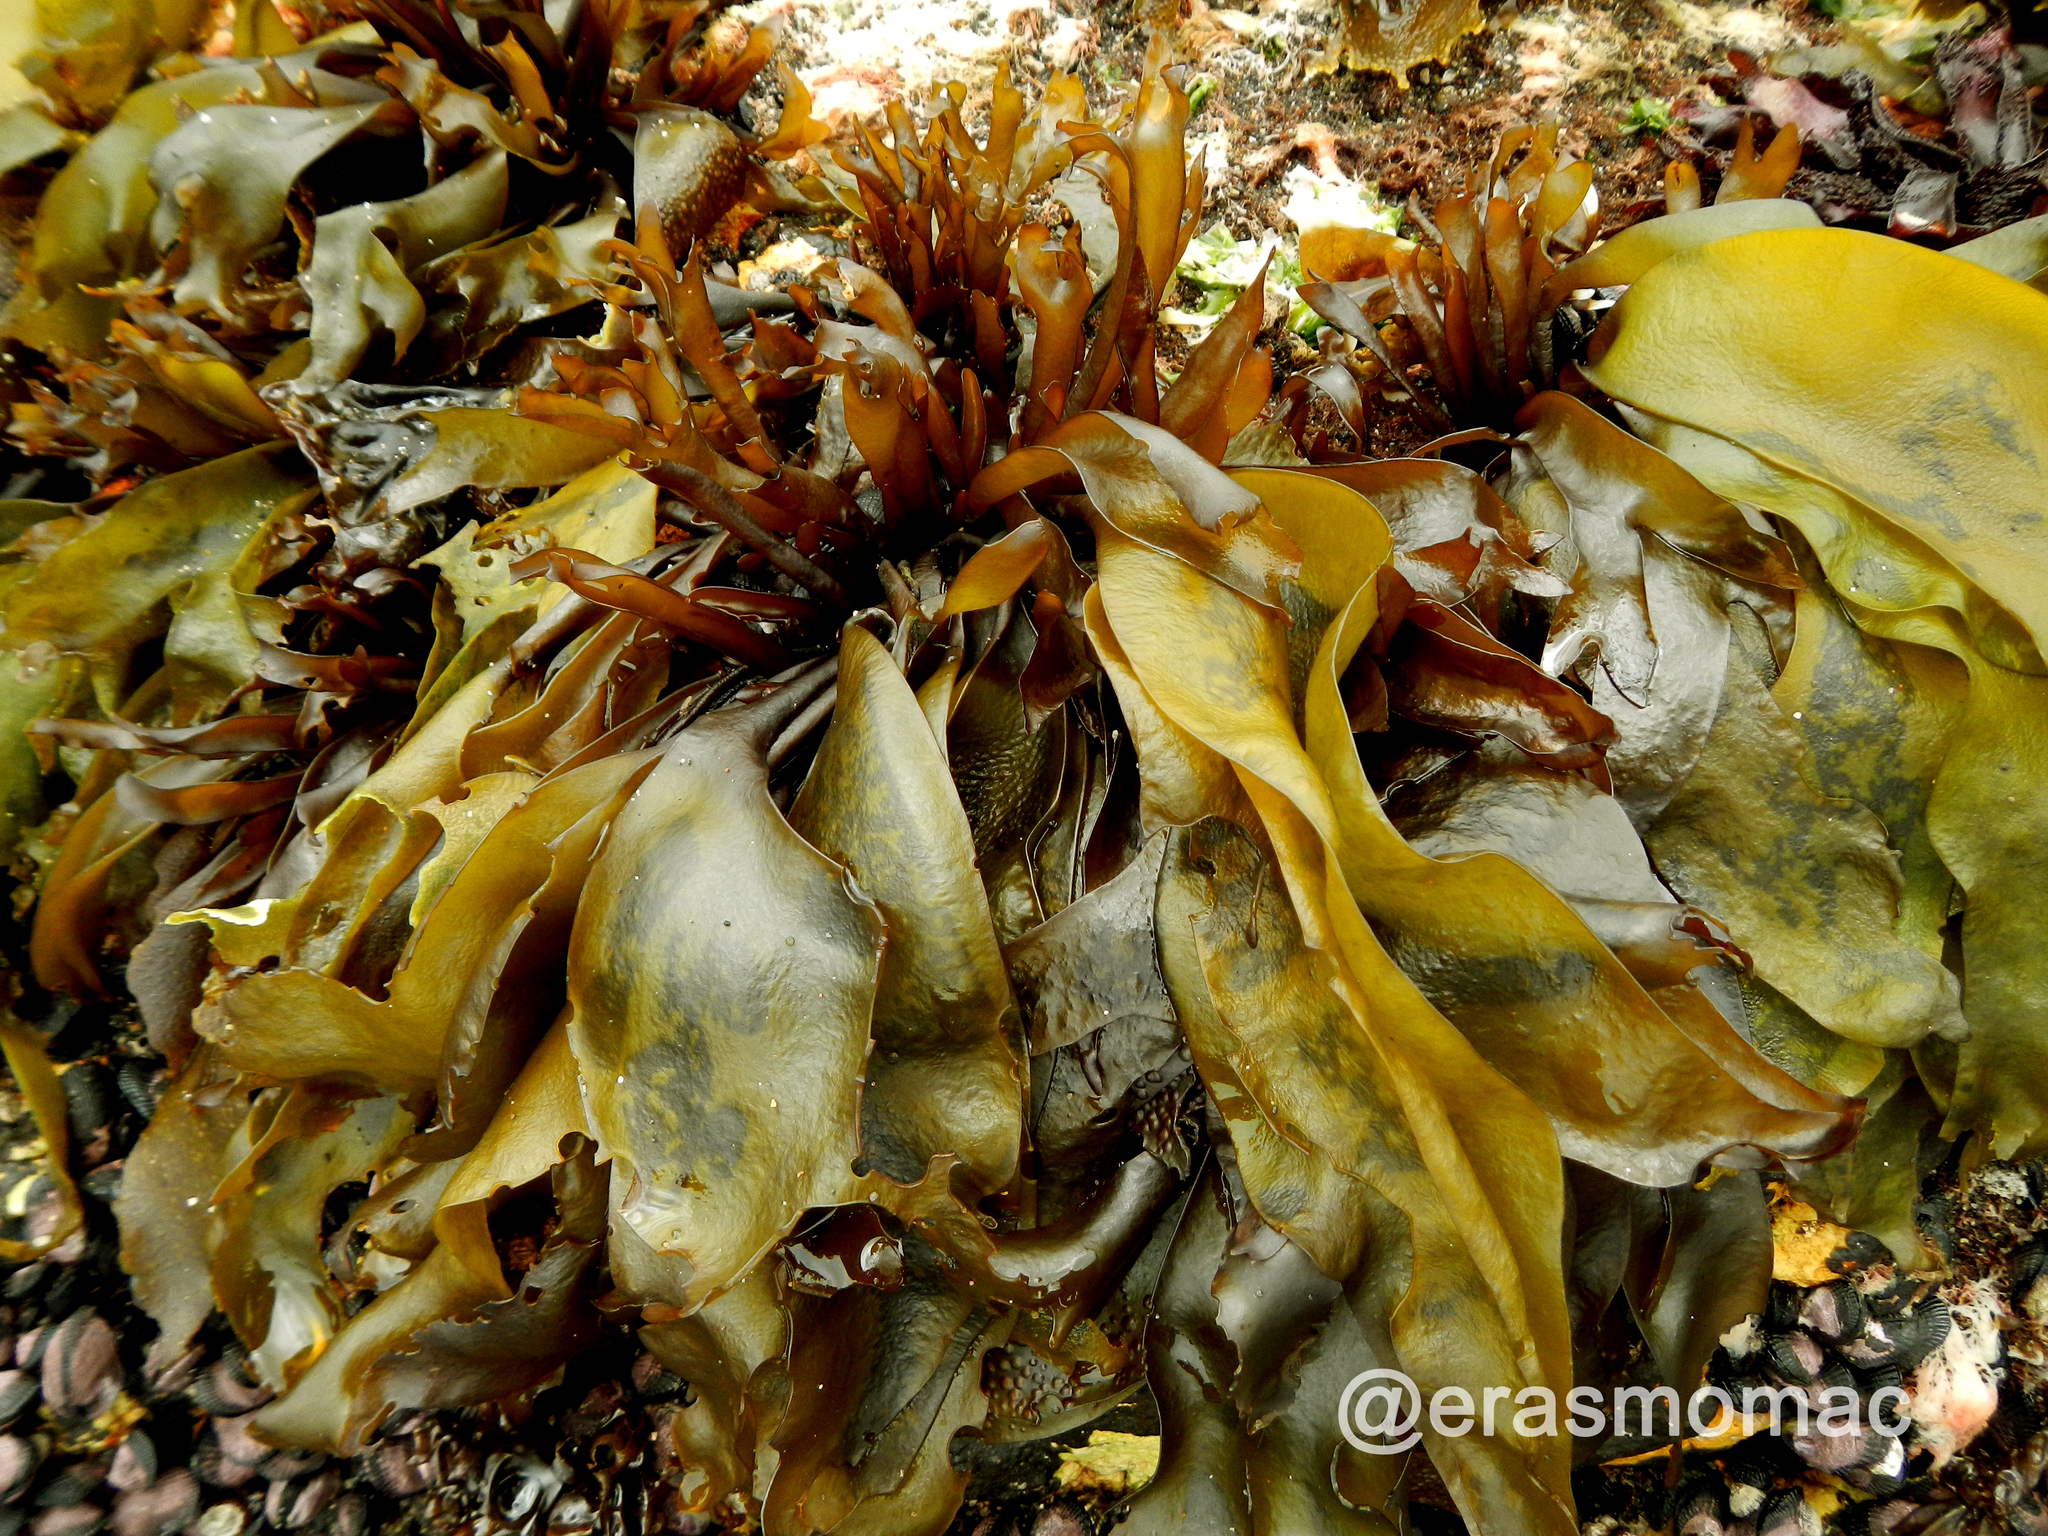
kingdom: Plantae
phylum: Rhodophyta
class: Florideophyceae
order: Gigartinales
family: Gigartinaceae
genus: Mazzaella
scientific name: Mazzaella laminarioides
